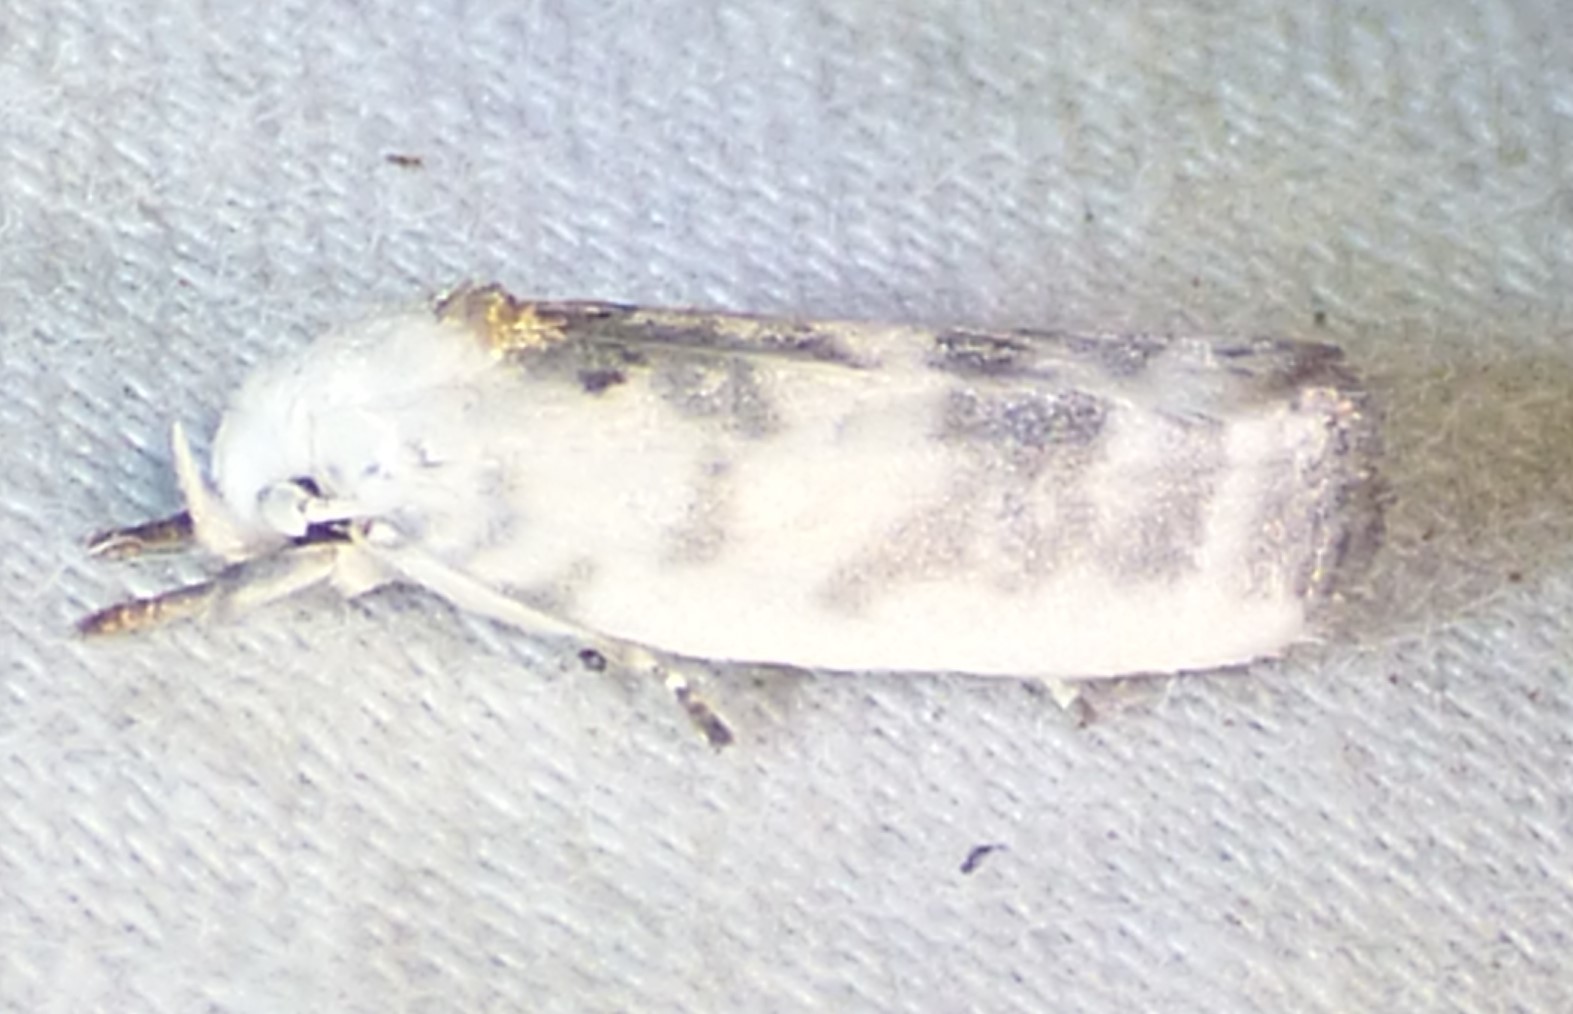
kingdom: Animalia
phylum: Arthropoda
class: Insecta
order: Lepidoptera
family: Depressariidae
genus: Antaeotricha
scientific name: Antaeotricha leucillana
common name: Pale gray bird-dropping moth
